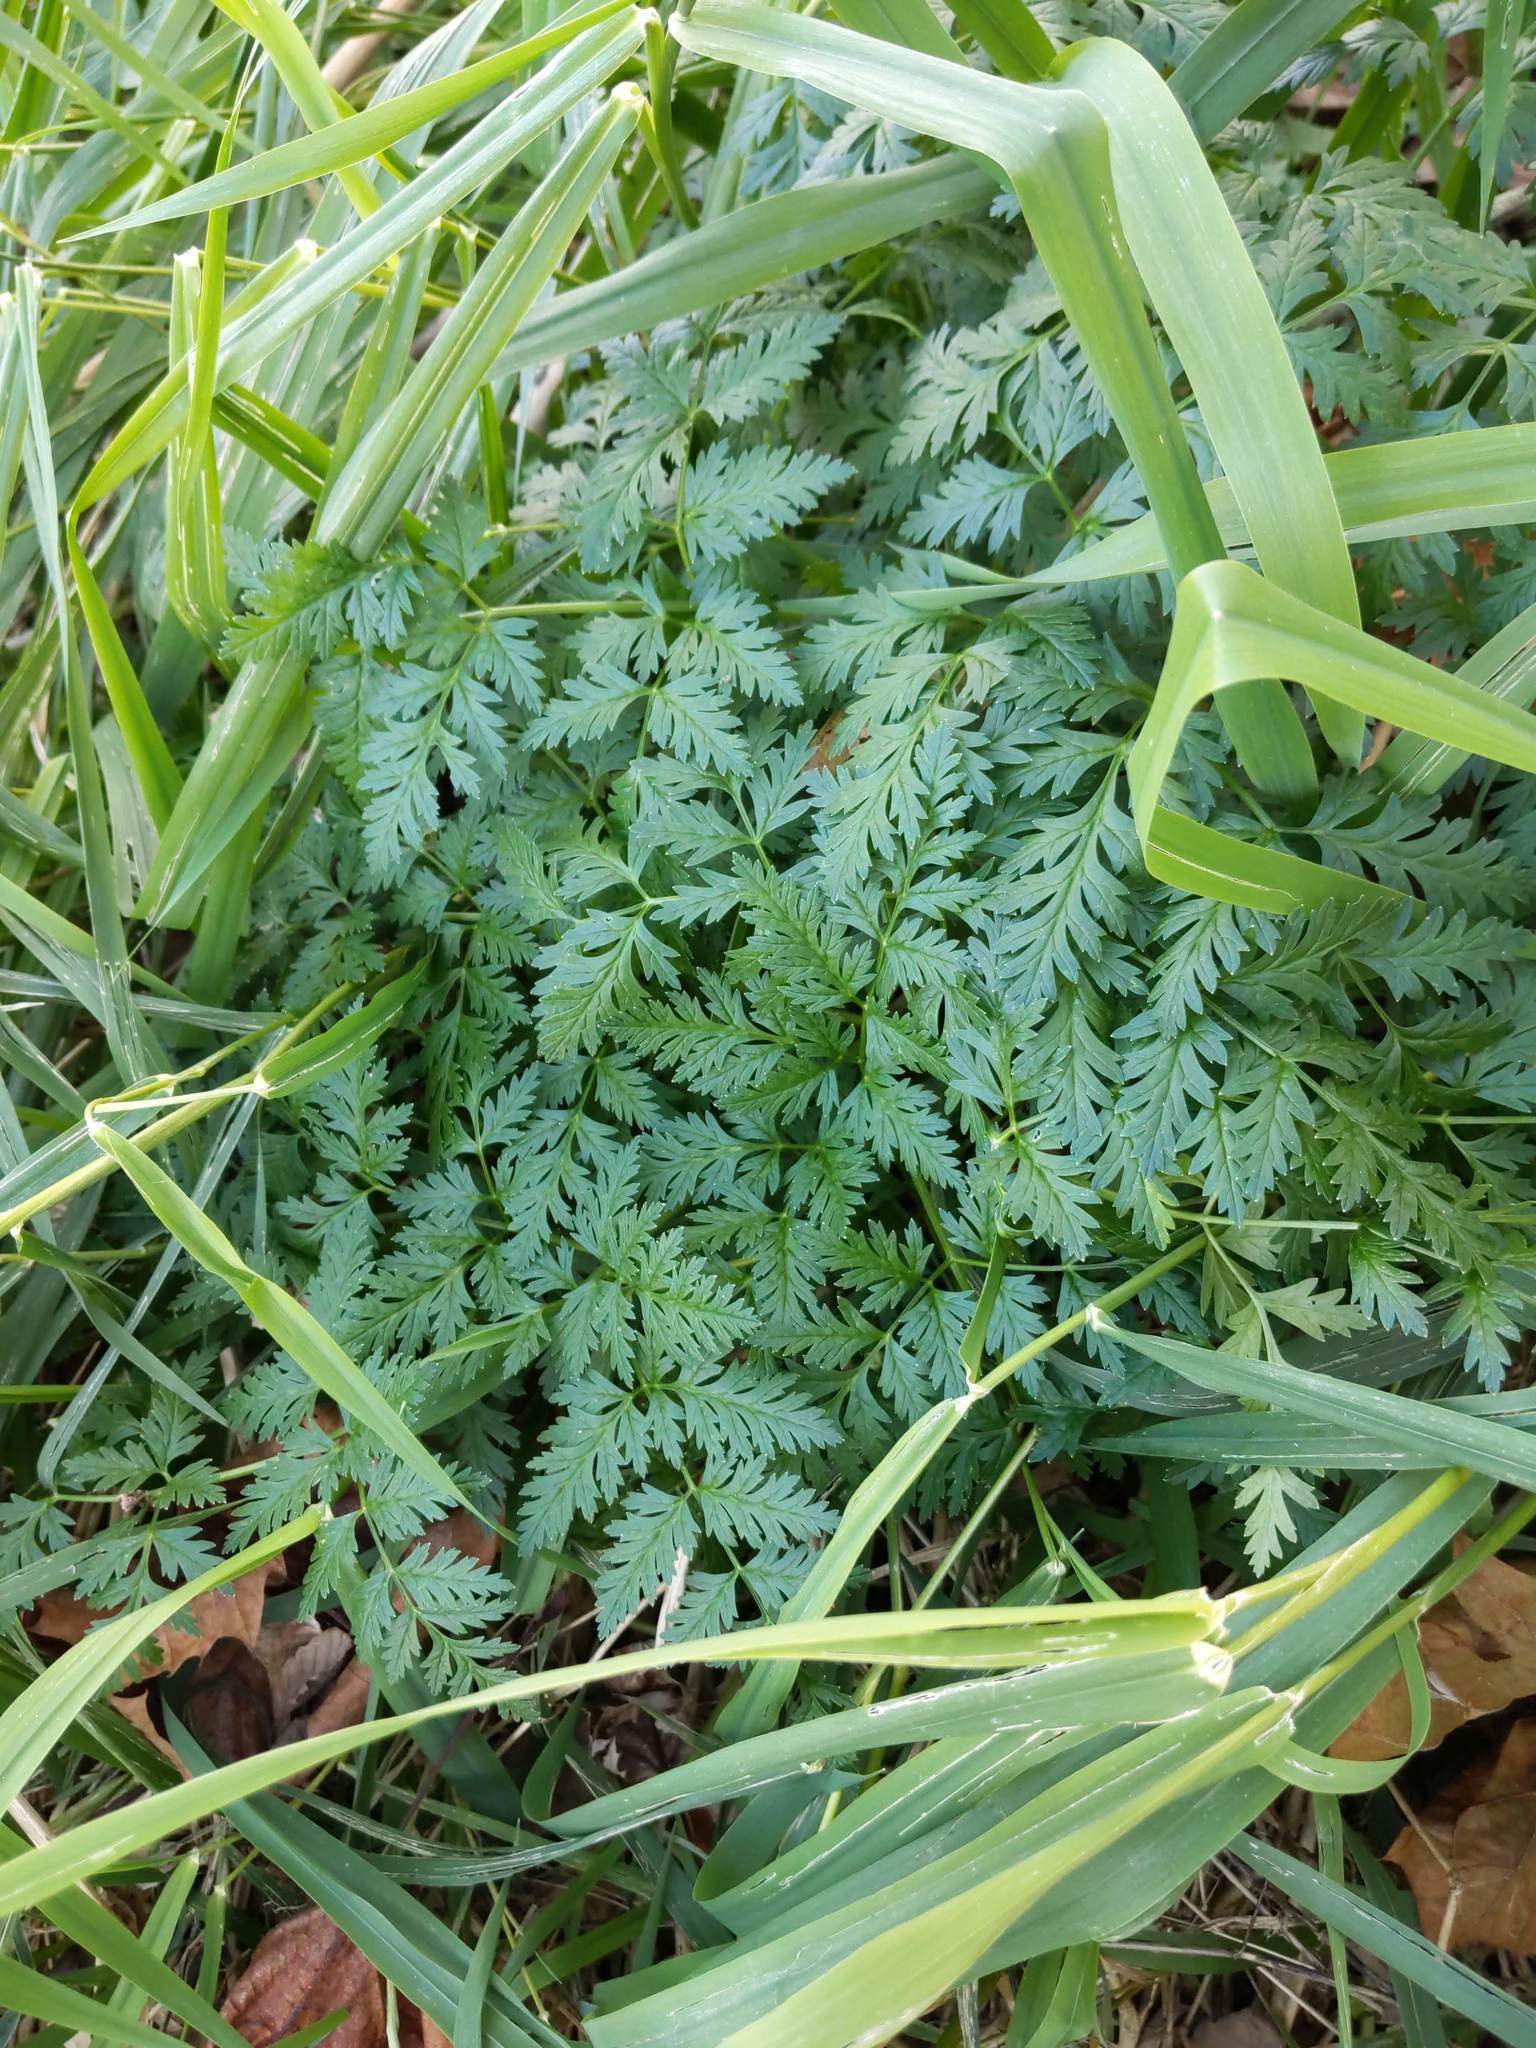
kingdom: Plantae
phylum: Tracheophyta
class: Magnoliopsida
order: Apiales
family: Apiaceae
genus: Conium
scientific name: Conium maculatum
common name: Hemlock
